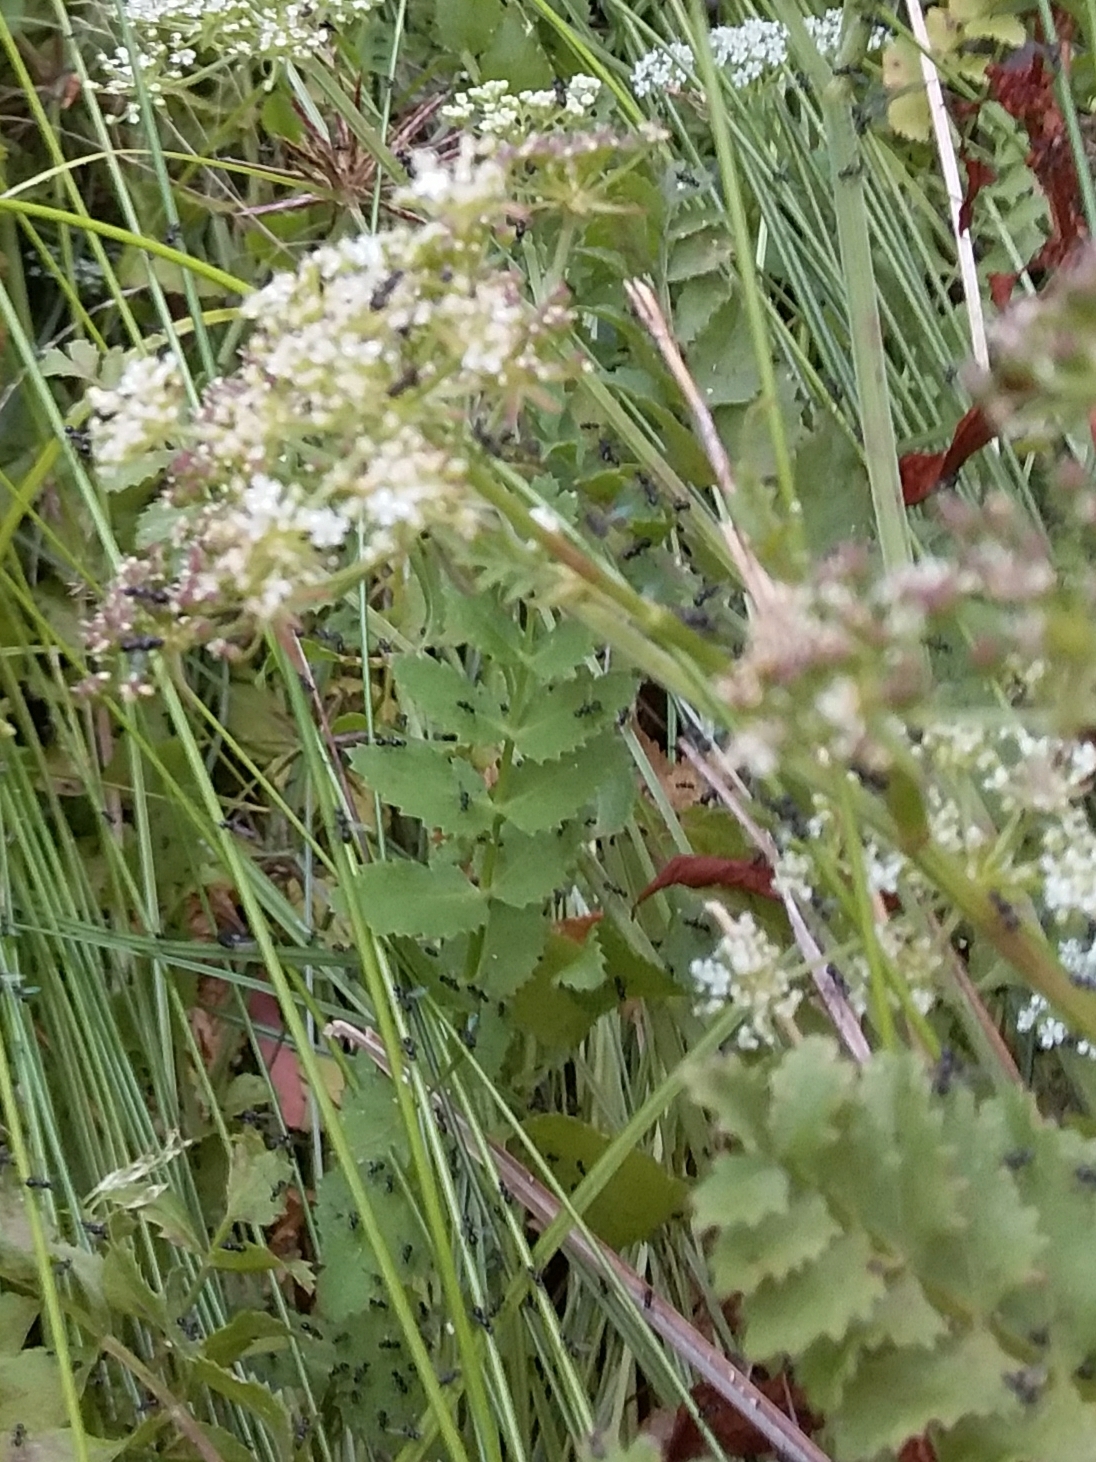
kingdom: Plantae
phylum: Tracheophyta
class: Magnoliopsida
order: Apiales
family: Apiaceae
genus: Berula
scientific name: Berula erecta
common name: Lesser water-parsnip
